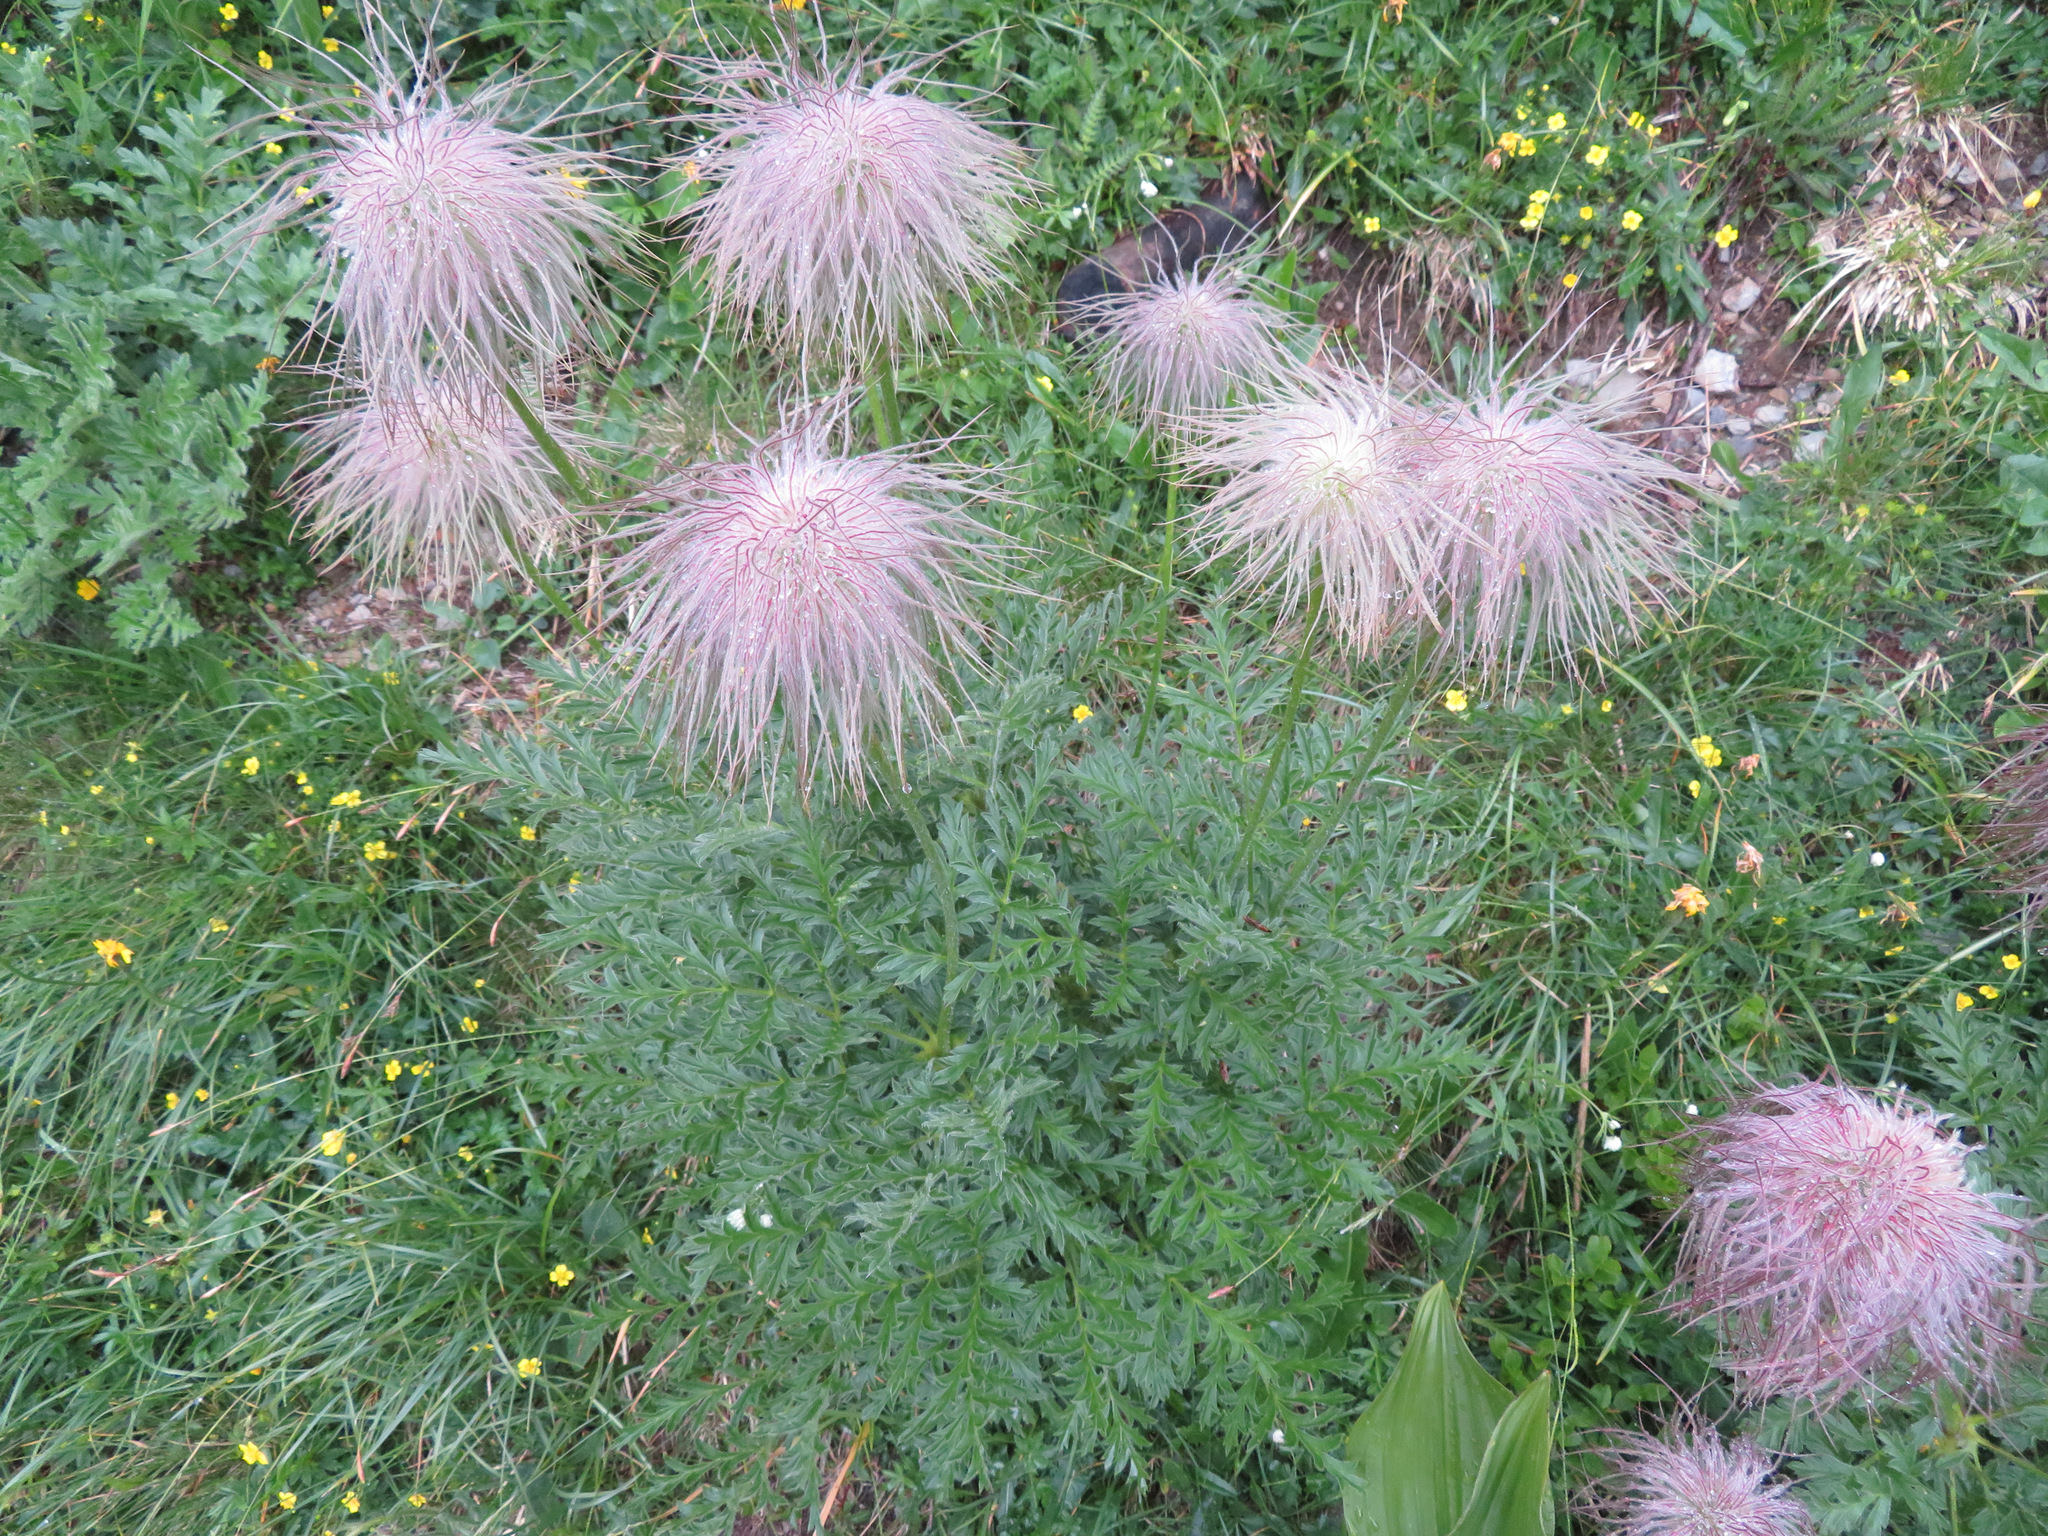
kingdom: Plantae
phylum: Tracheophyta
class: Magnoliopsida
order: Ranunculales
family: Ranunculaceae
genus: Pulsatilla
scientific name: Pulsatilla alpina
